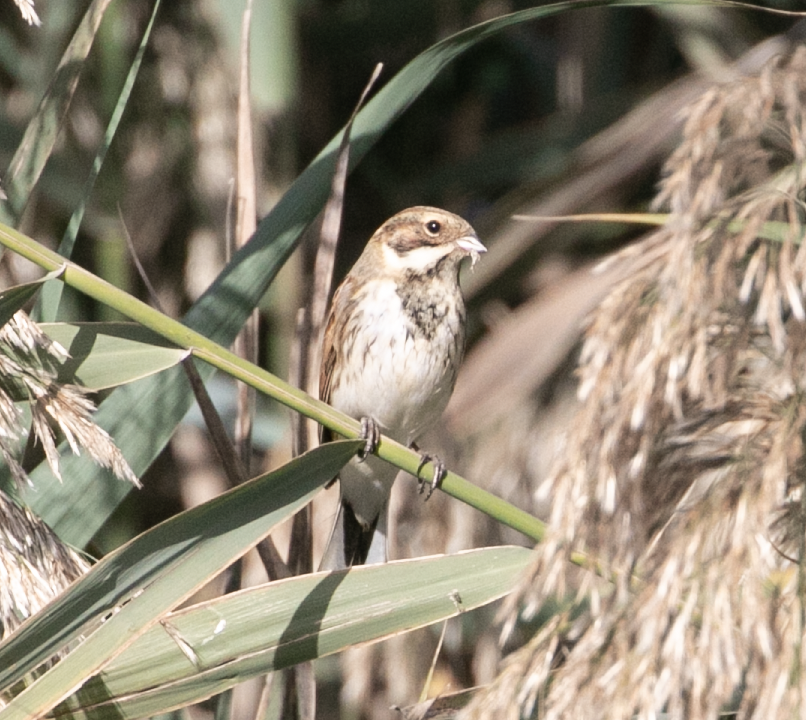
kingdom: Animalia
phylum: Chordata
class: Aves
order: Passeriformes
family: Emberizidae
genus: Emberiza
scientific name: Emberiza schoeniclus
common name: Reed bunting
